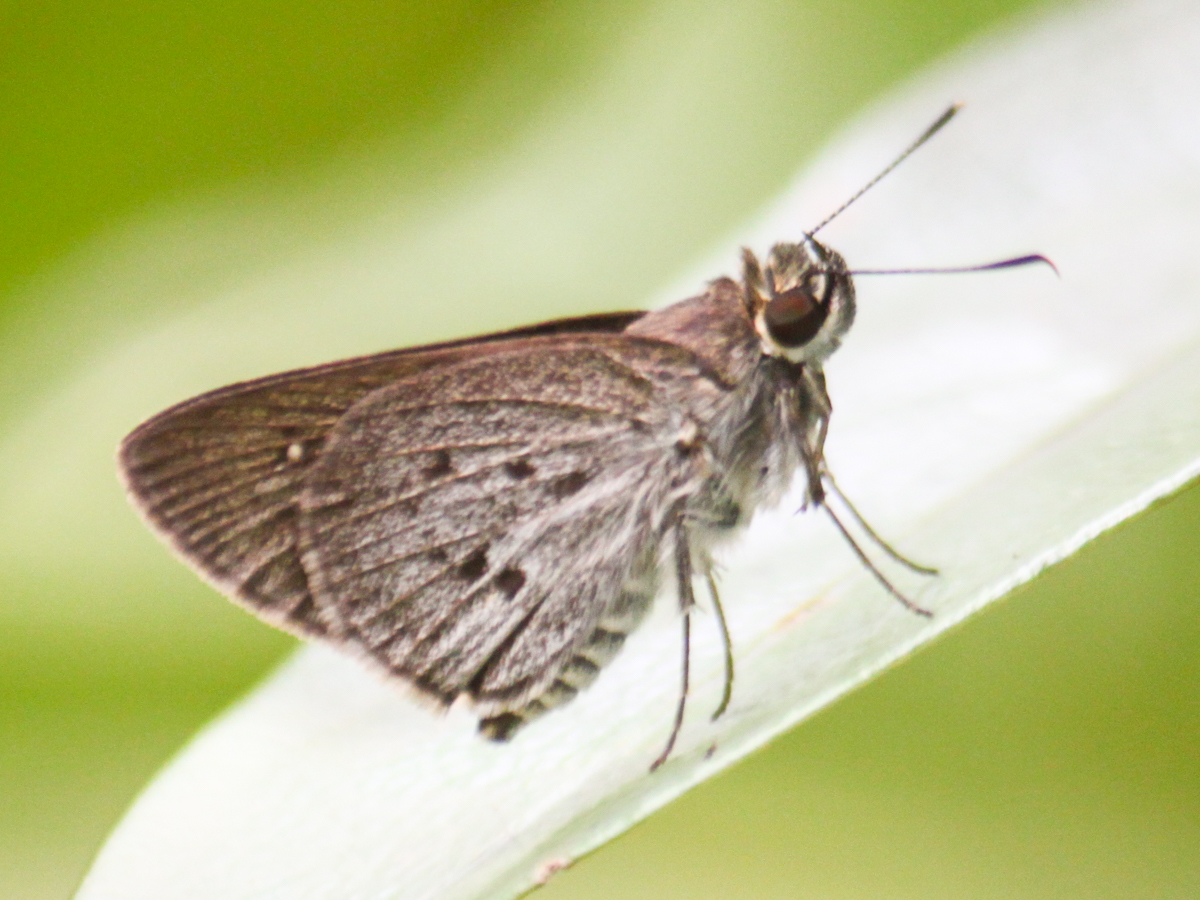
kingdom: Animalia
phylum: Arthropoda
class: Insecta
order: Lepidoptera
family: Hesperiidae
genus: Suastus
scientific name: Suastus minuta
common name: Small palm bob
